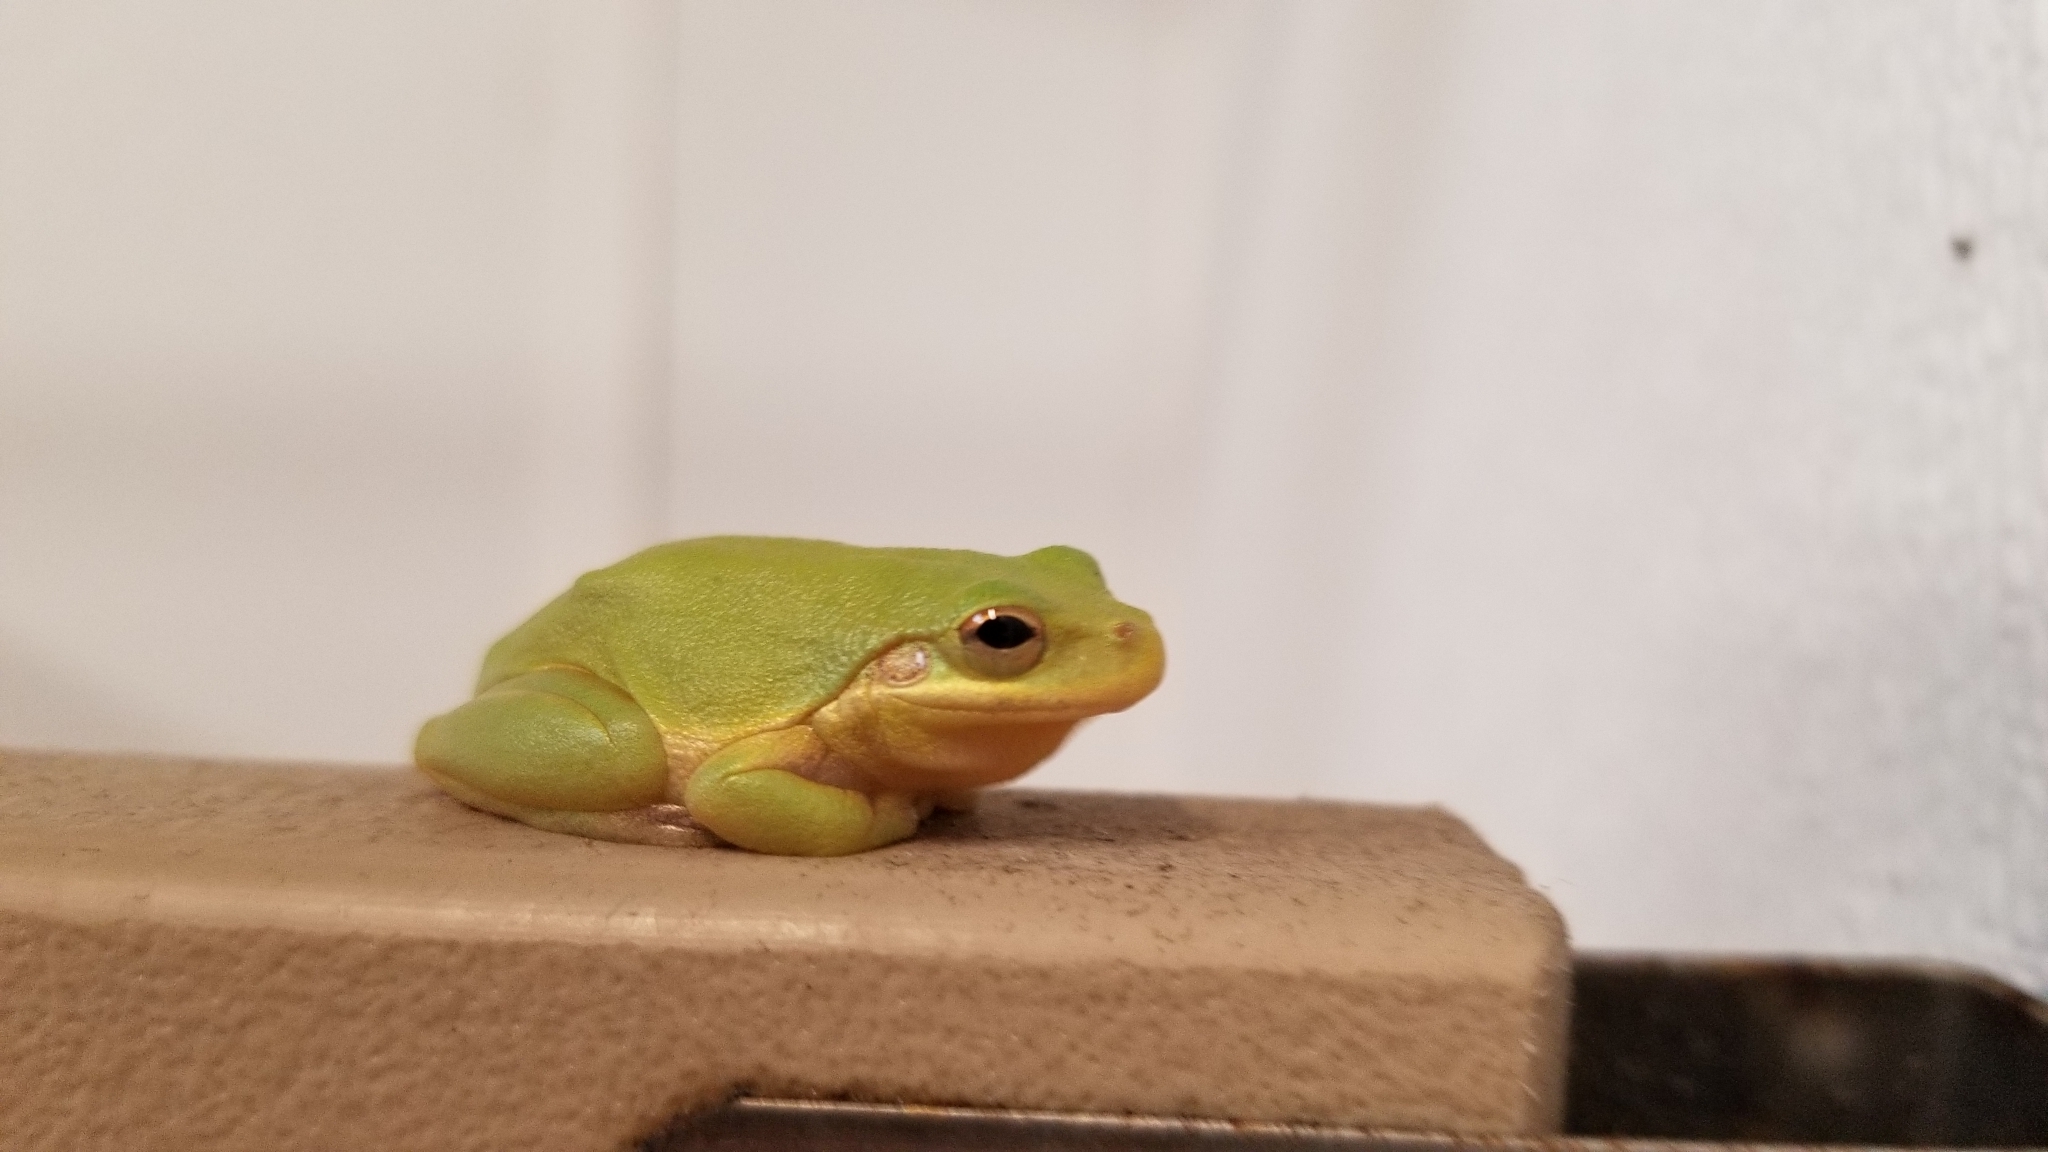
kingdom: Animalia
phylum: Chordata
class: Amphibia
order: Anura
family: Hylidae
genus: Dryophytes
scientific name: Dryophytes squirellus
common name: Squirrel treefrog
